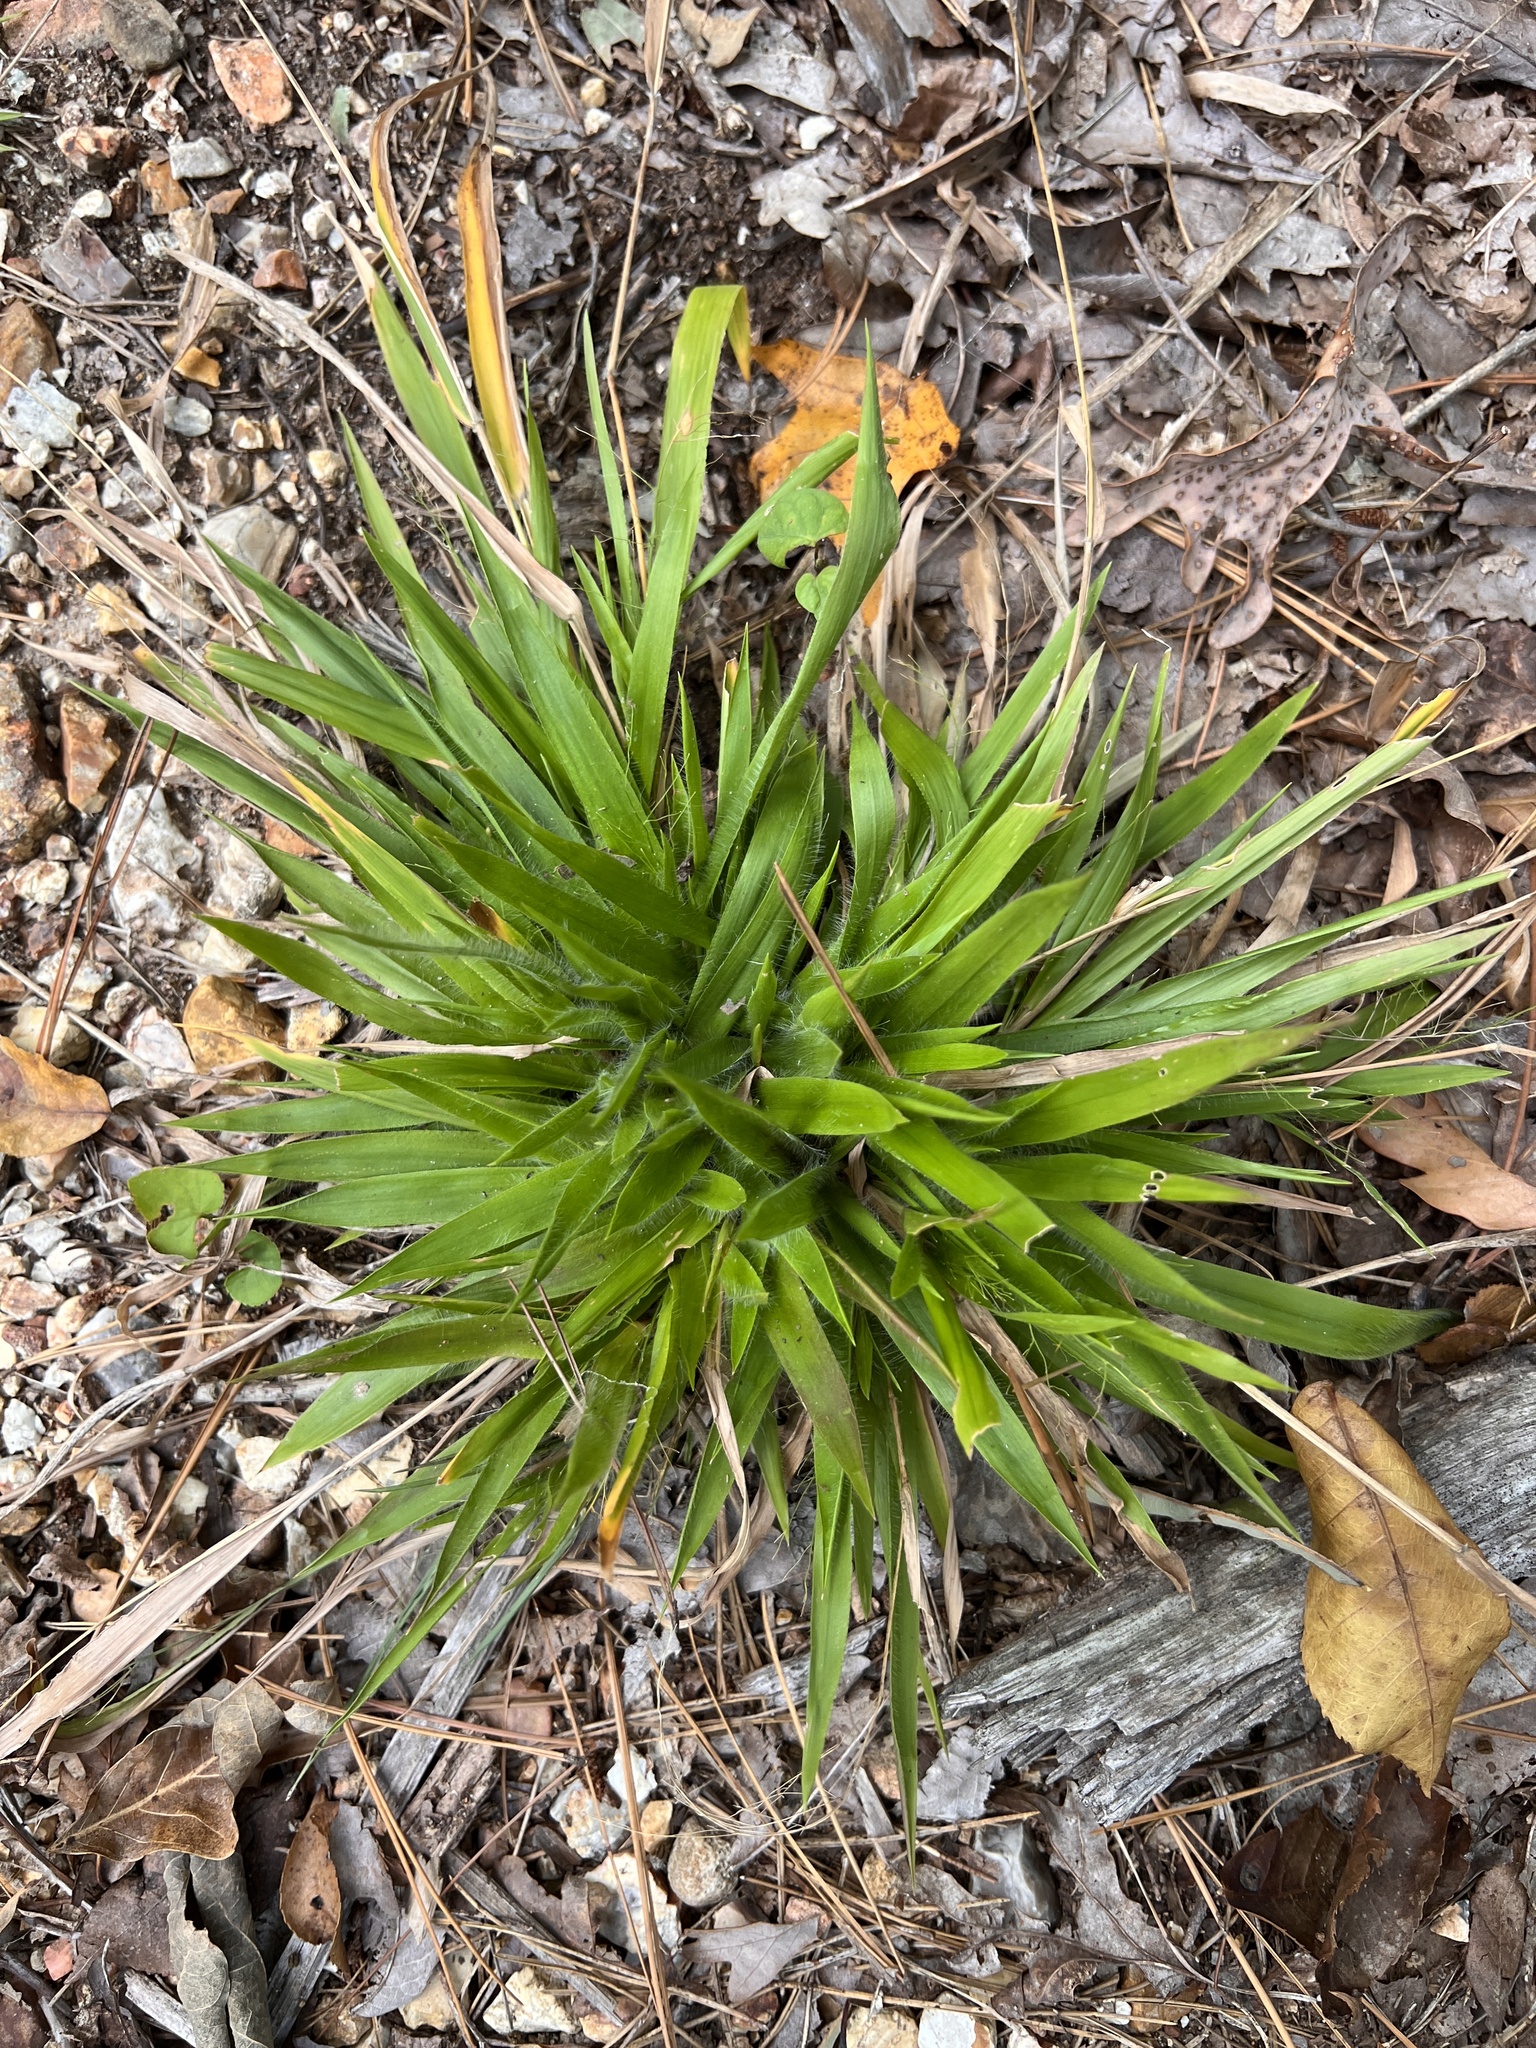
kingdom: Plantae
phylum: Tracheophyta
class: Liliopsida
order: Poales
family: Poaceae
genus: Dichanthelium
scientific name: Dichanthelium laxiflorum
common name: Soft-tuft panic grass
